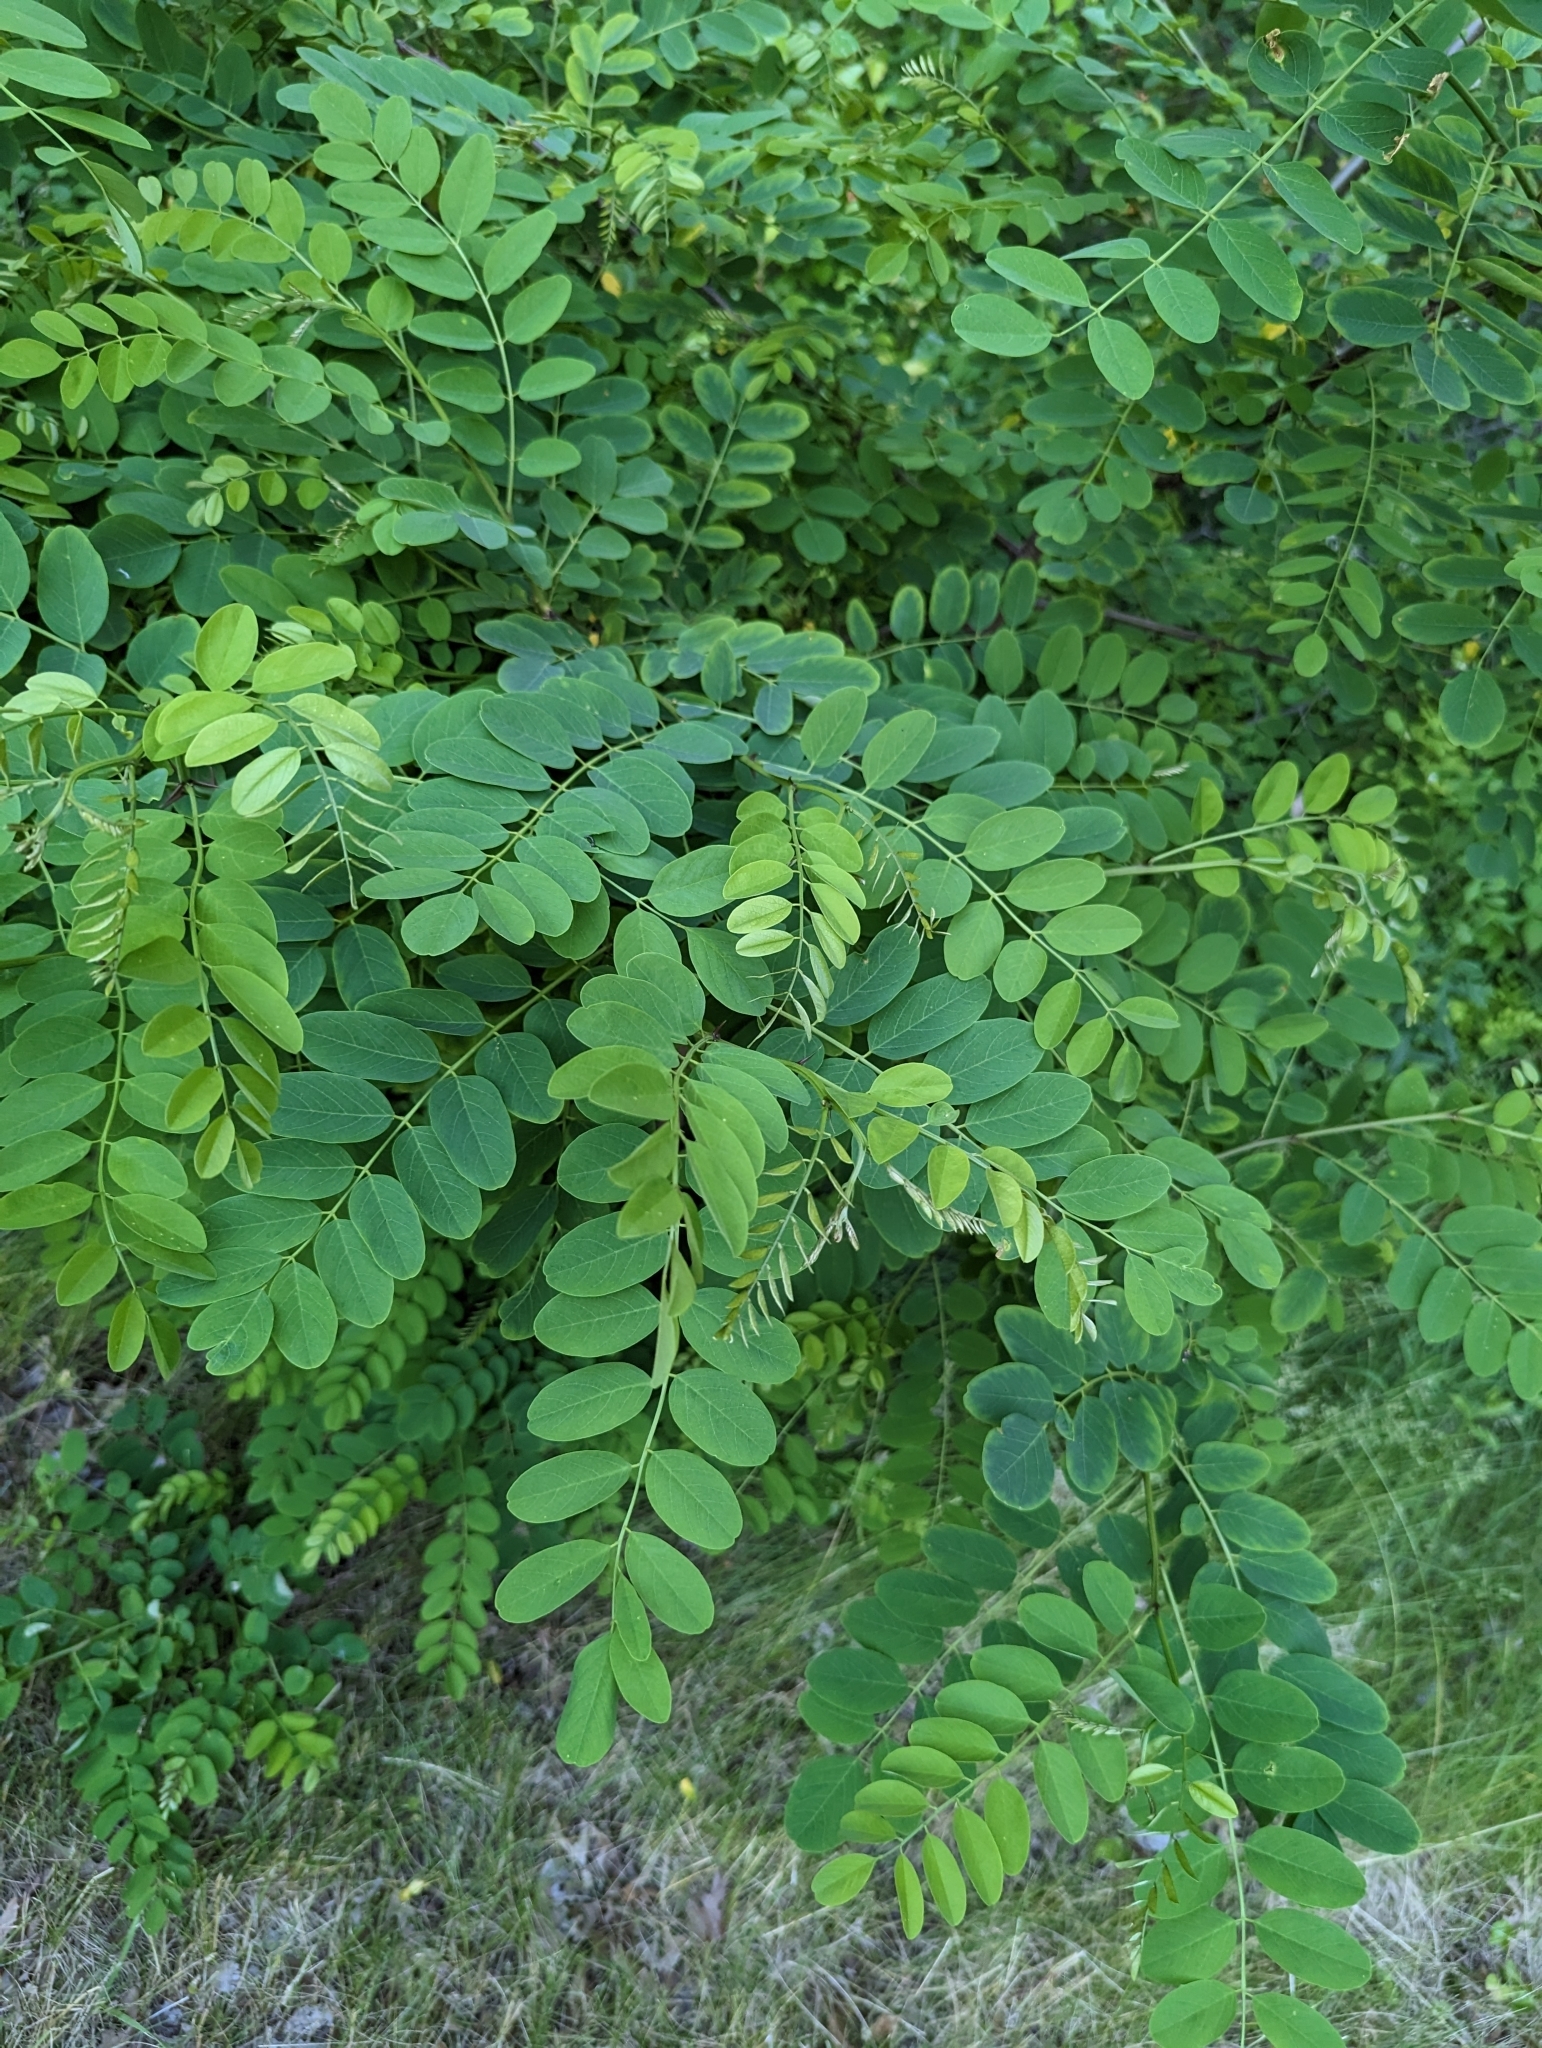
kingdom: Plantae
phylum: Tracheophyta
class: Magnoliopsida
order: Fabales
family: Fabaceae
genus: Robinia
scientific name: Robinia pseudoacacia
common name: Black locust
